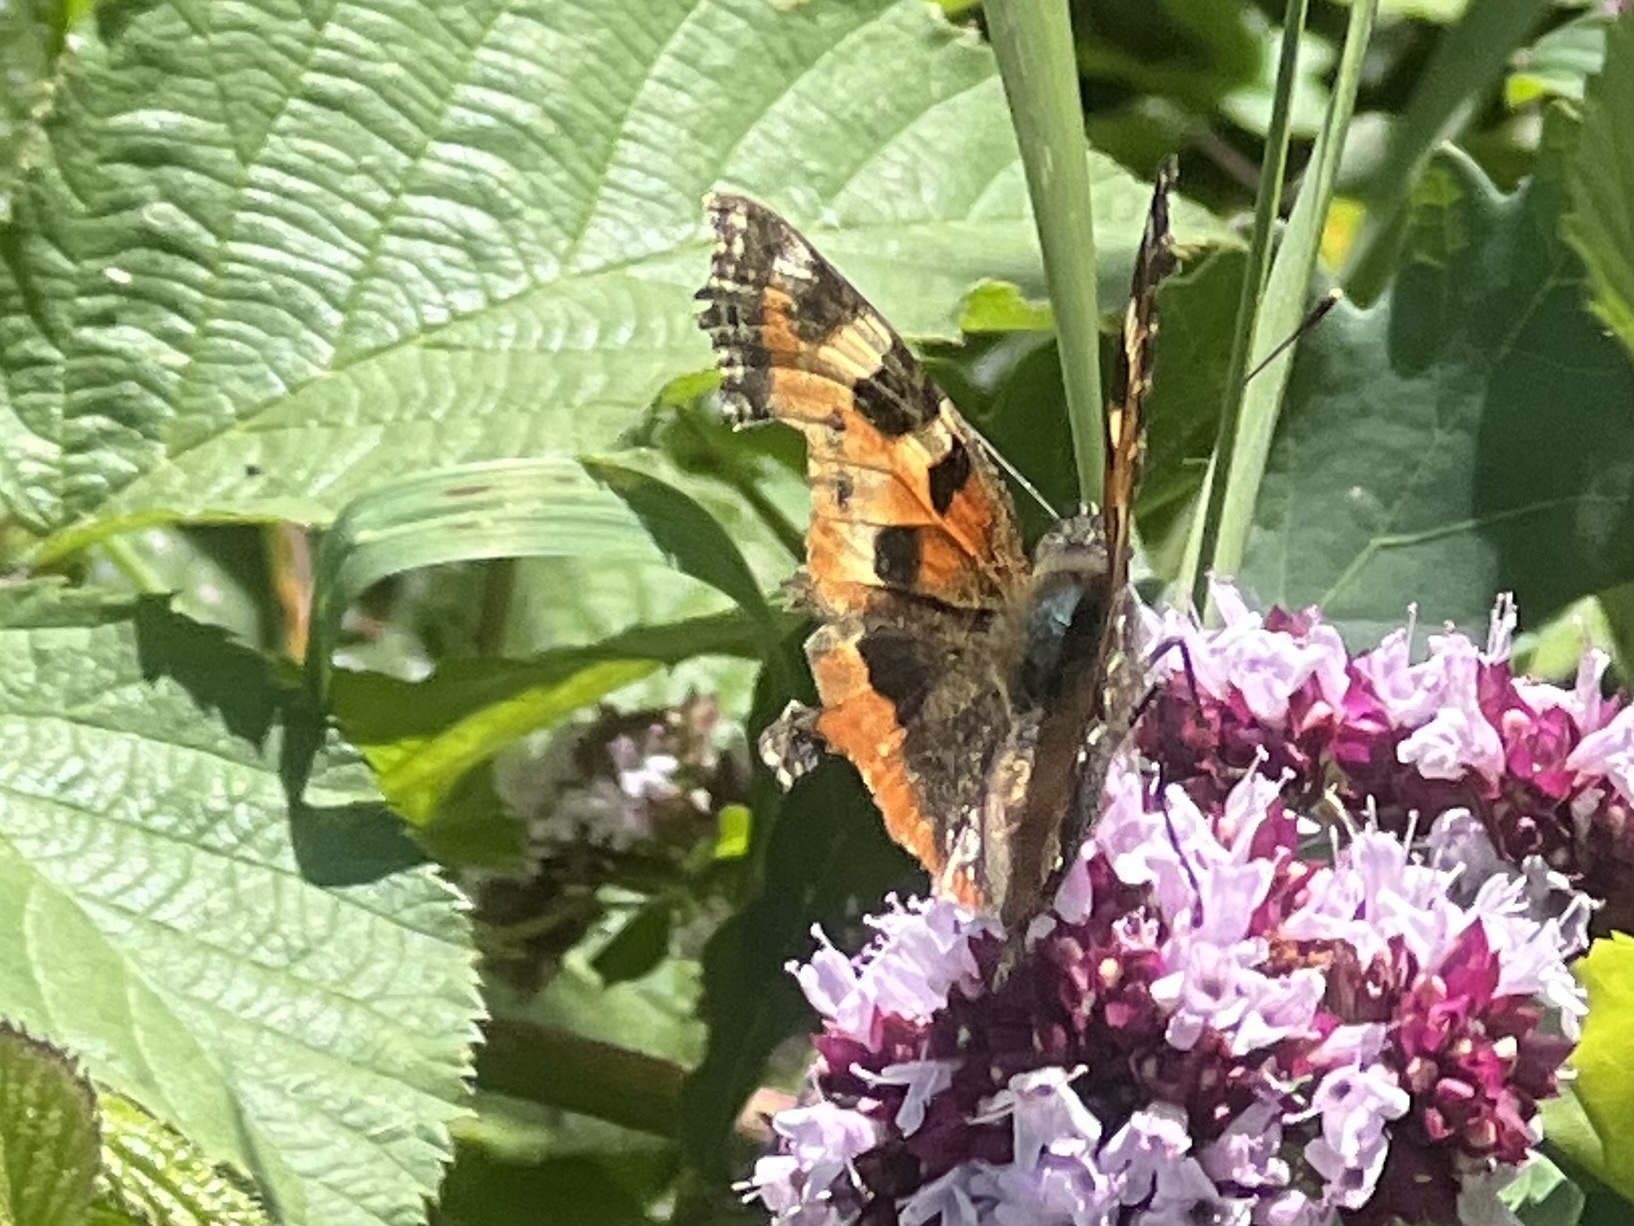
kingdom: Animalia
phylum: Arthropoda
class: Insecta
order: Lepidoptera
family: Nymphalidae
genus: Aglais
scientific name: Aglais urticae
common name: Small tortoiseshell
